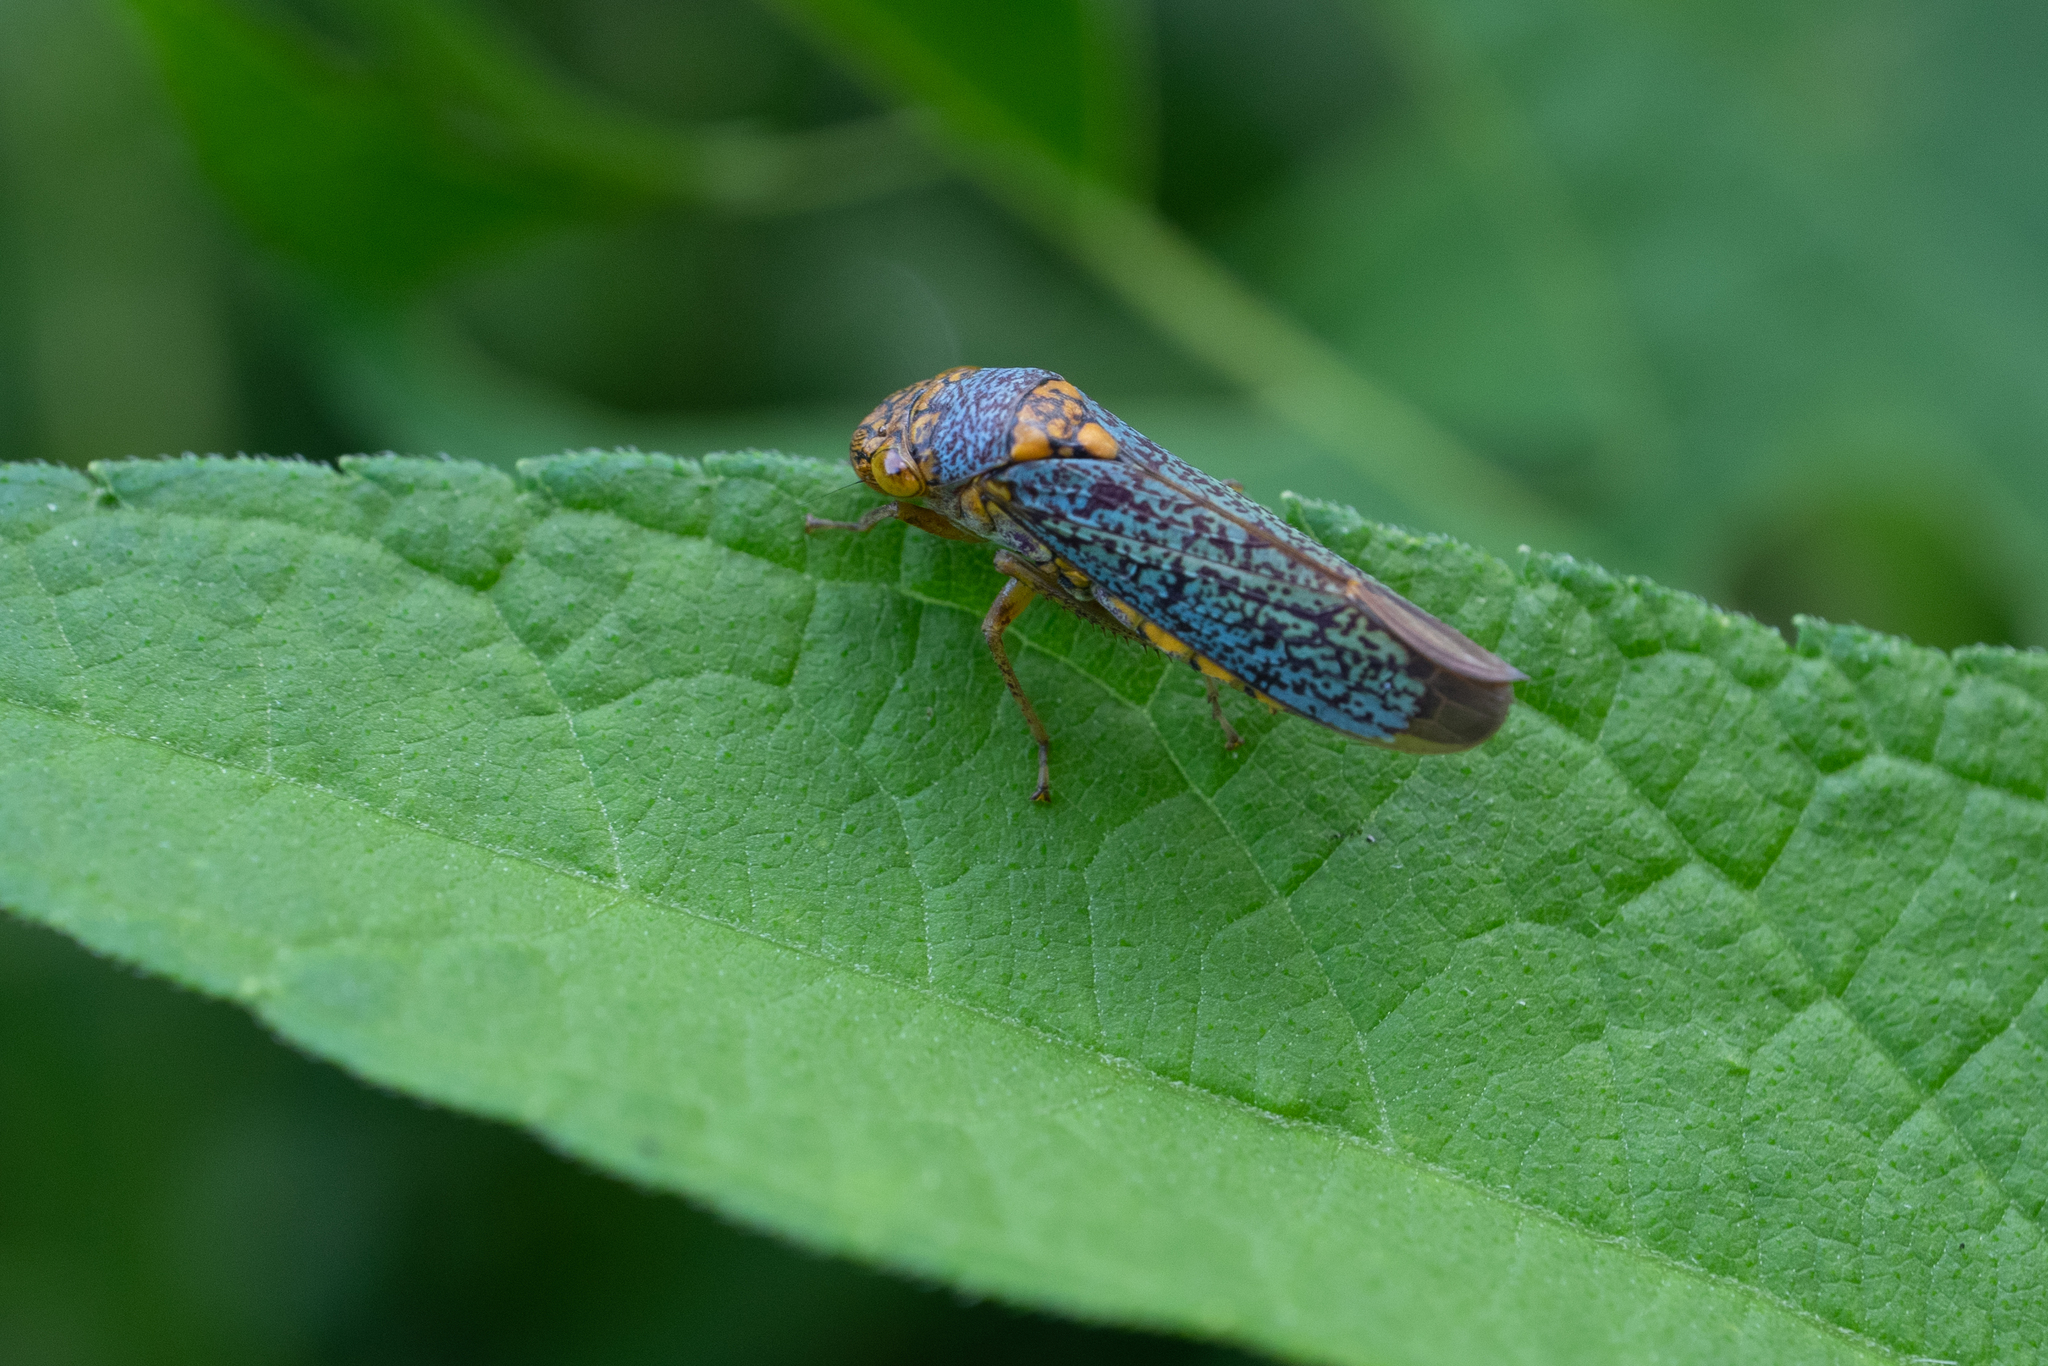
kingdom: Animalia
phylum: Arthropoda
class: Insecta
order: Hemiptera
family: Cicadellidae
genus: Oncometopia
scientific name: Oncometopia orbona
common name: Broad-headed sharpshooter
